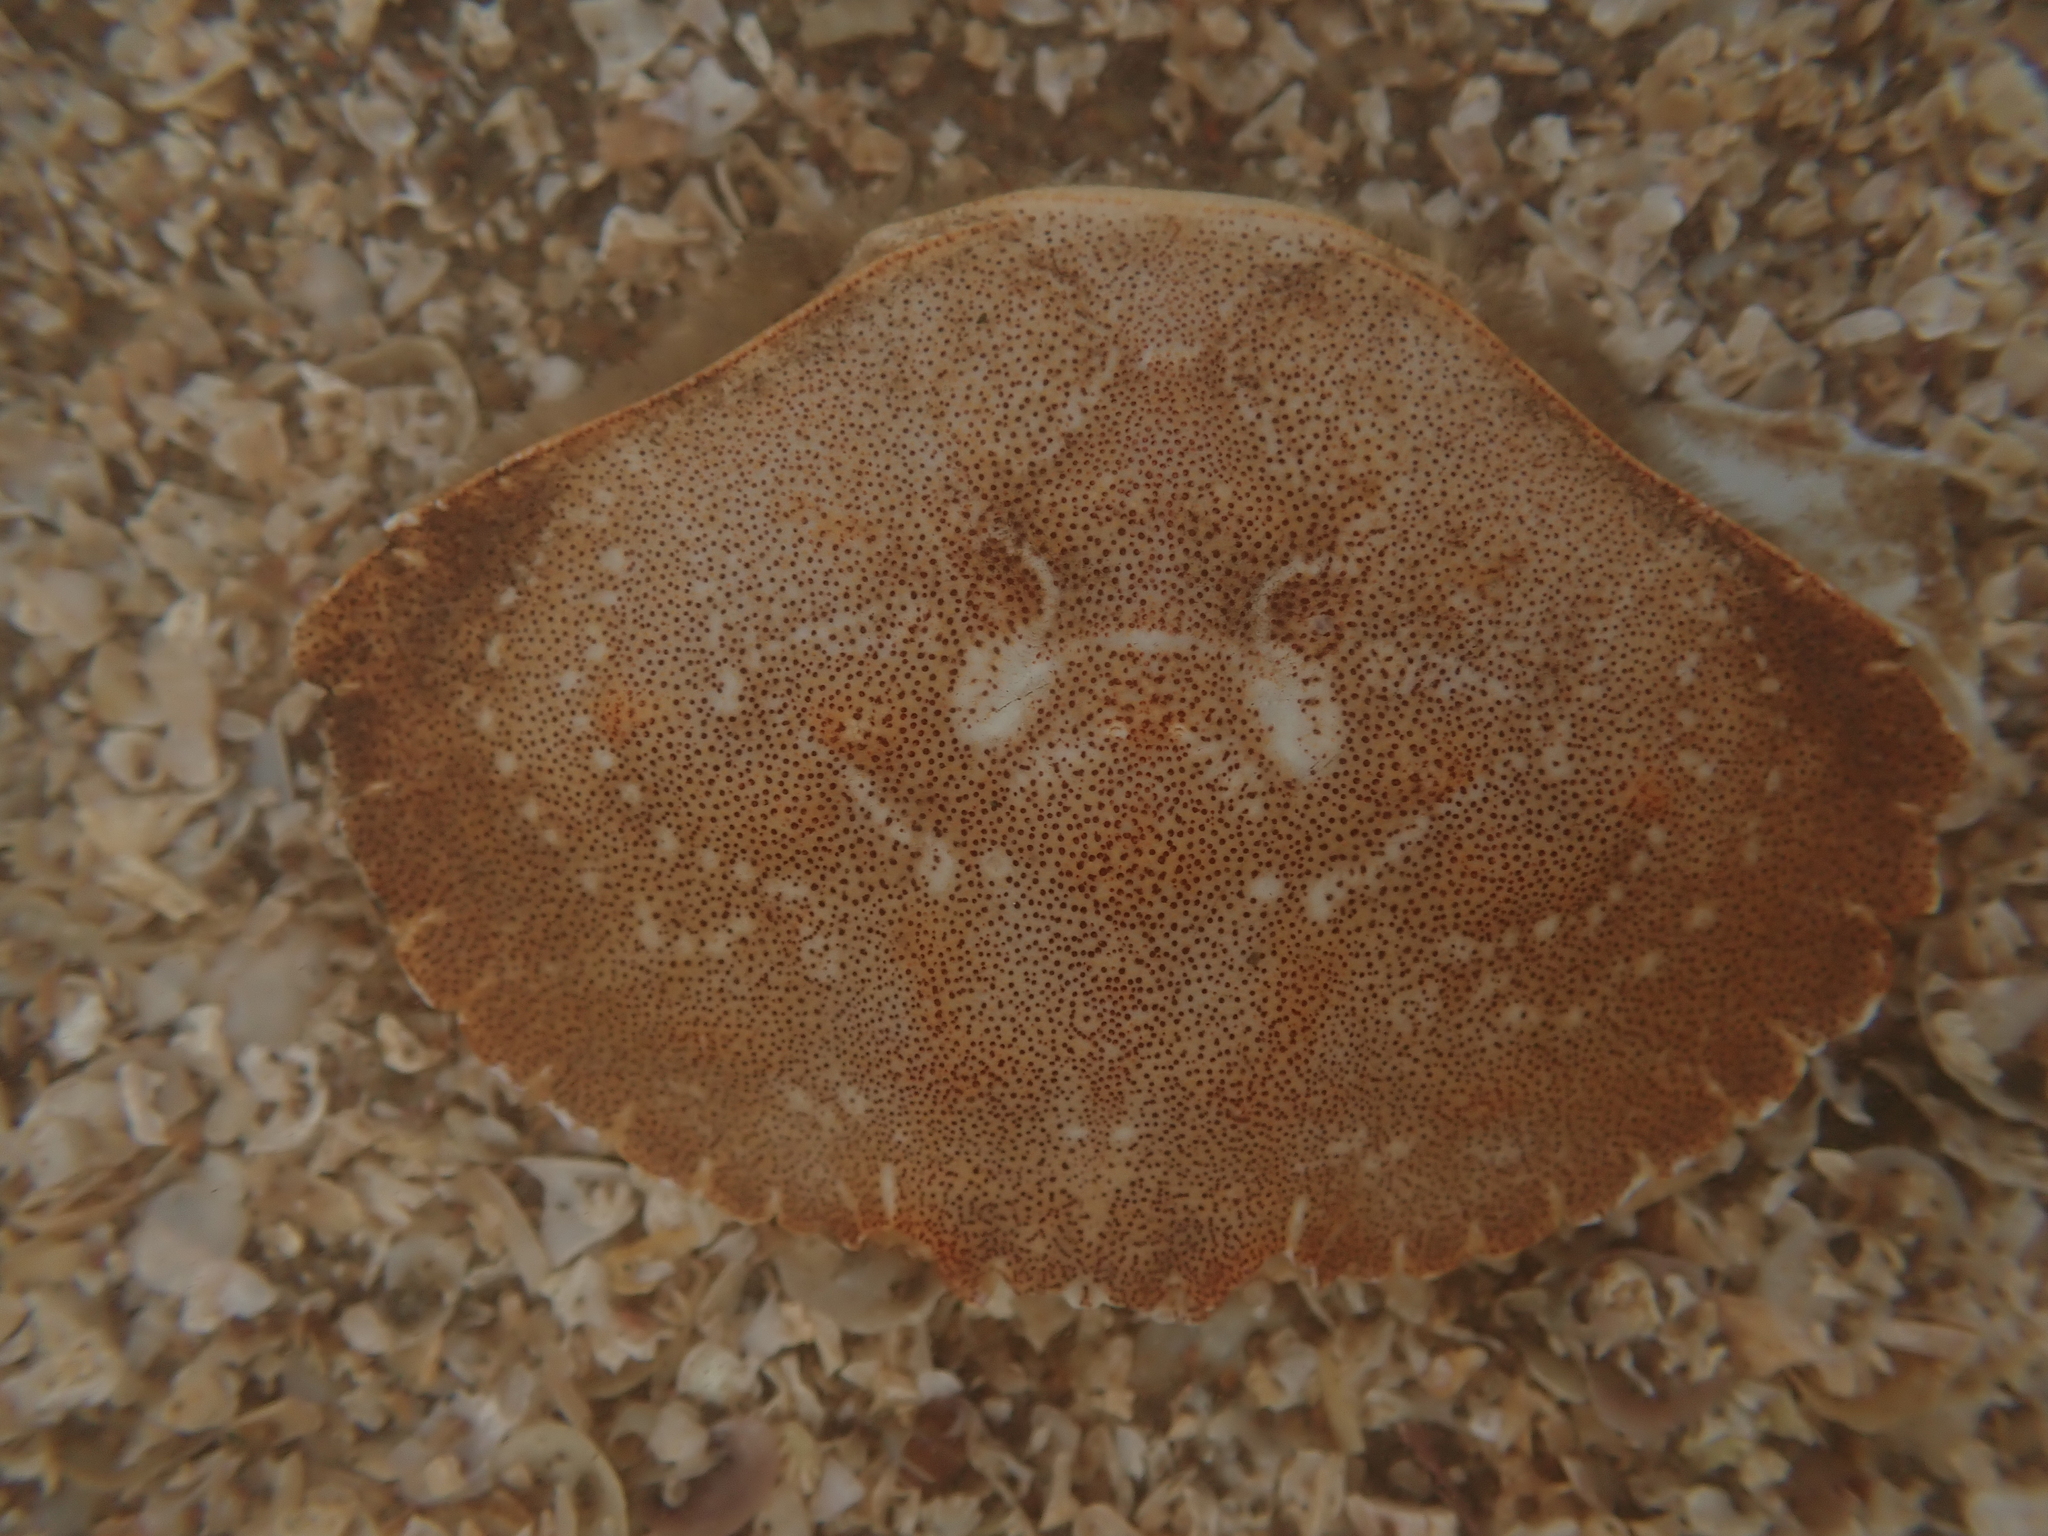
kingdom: Animalia
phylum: Arthropoda
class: Malacostraca
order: Decapoda
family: Cancridae
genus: Cancer
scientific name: Cancer irroratus
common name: Atlantic rock crab
